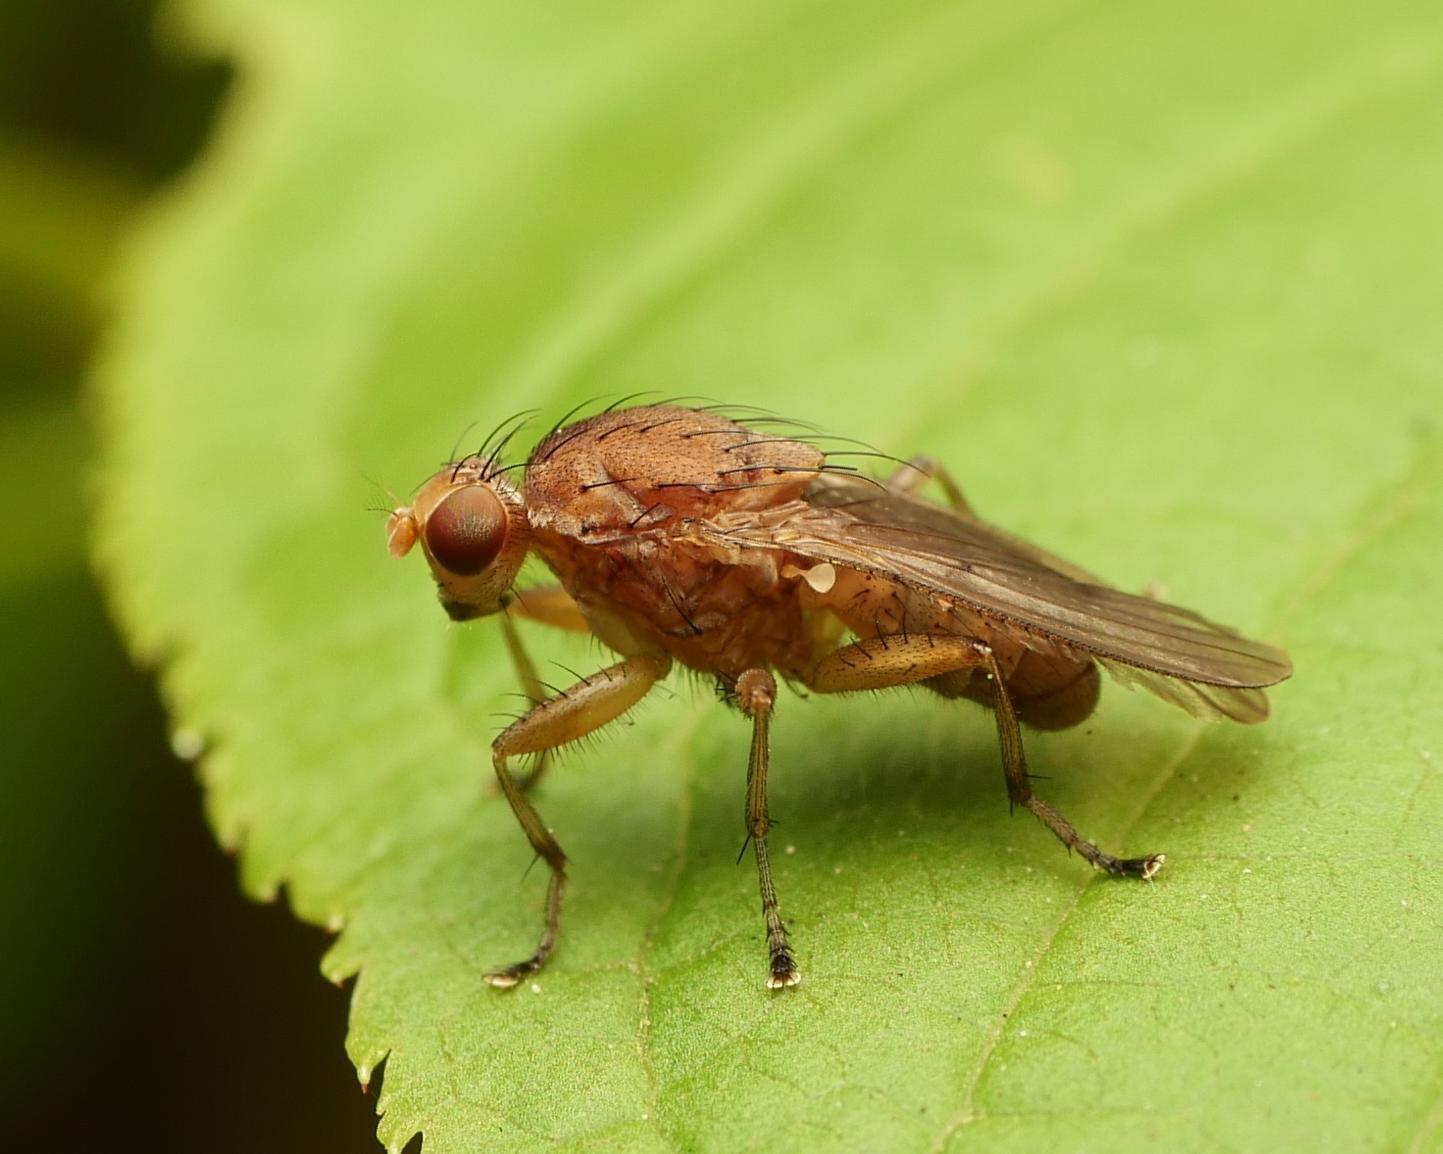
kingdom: Animalia
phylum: Arthropoda
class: Insecta
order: Diptera
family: Heleomyzidae
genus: Suillia
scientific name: Suillia affinis
